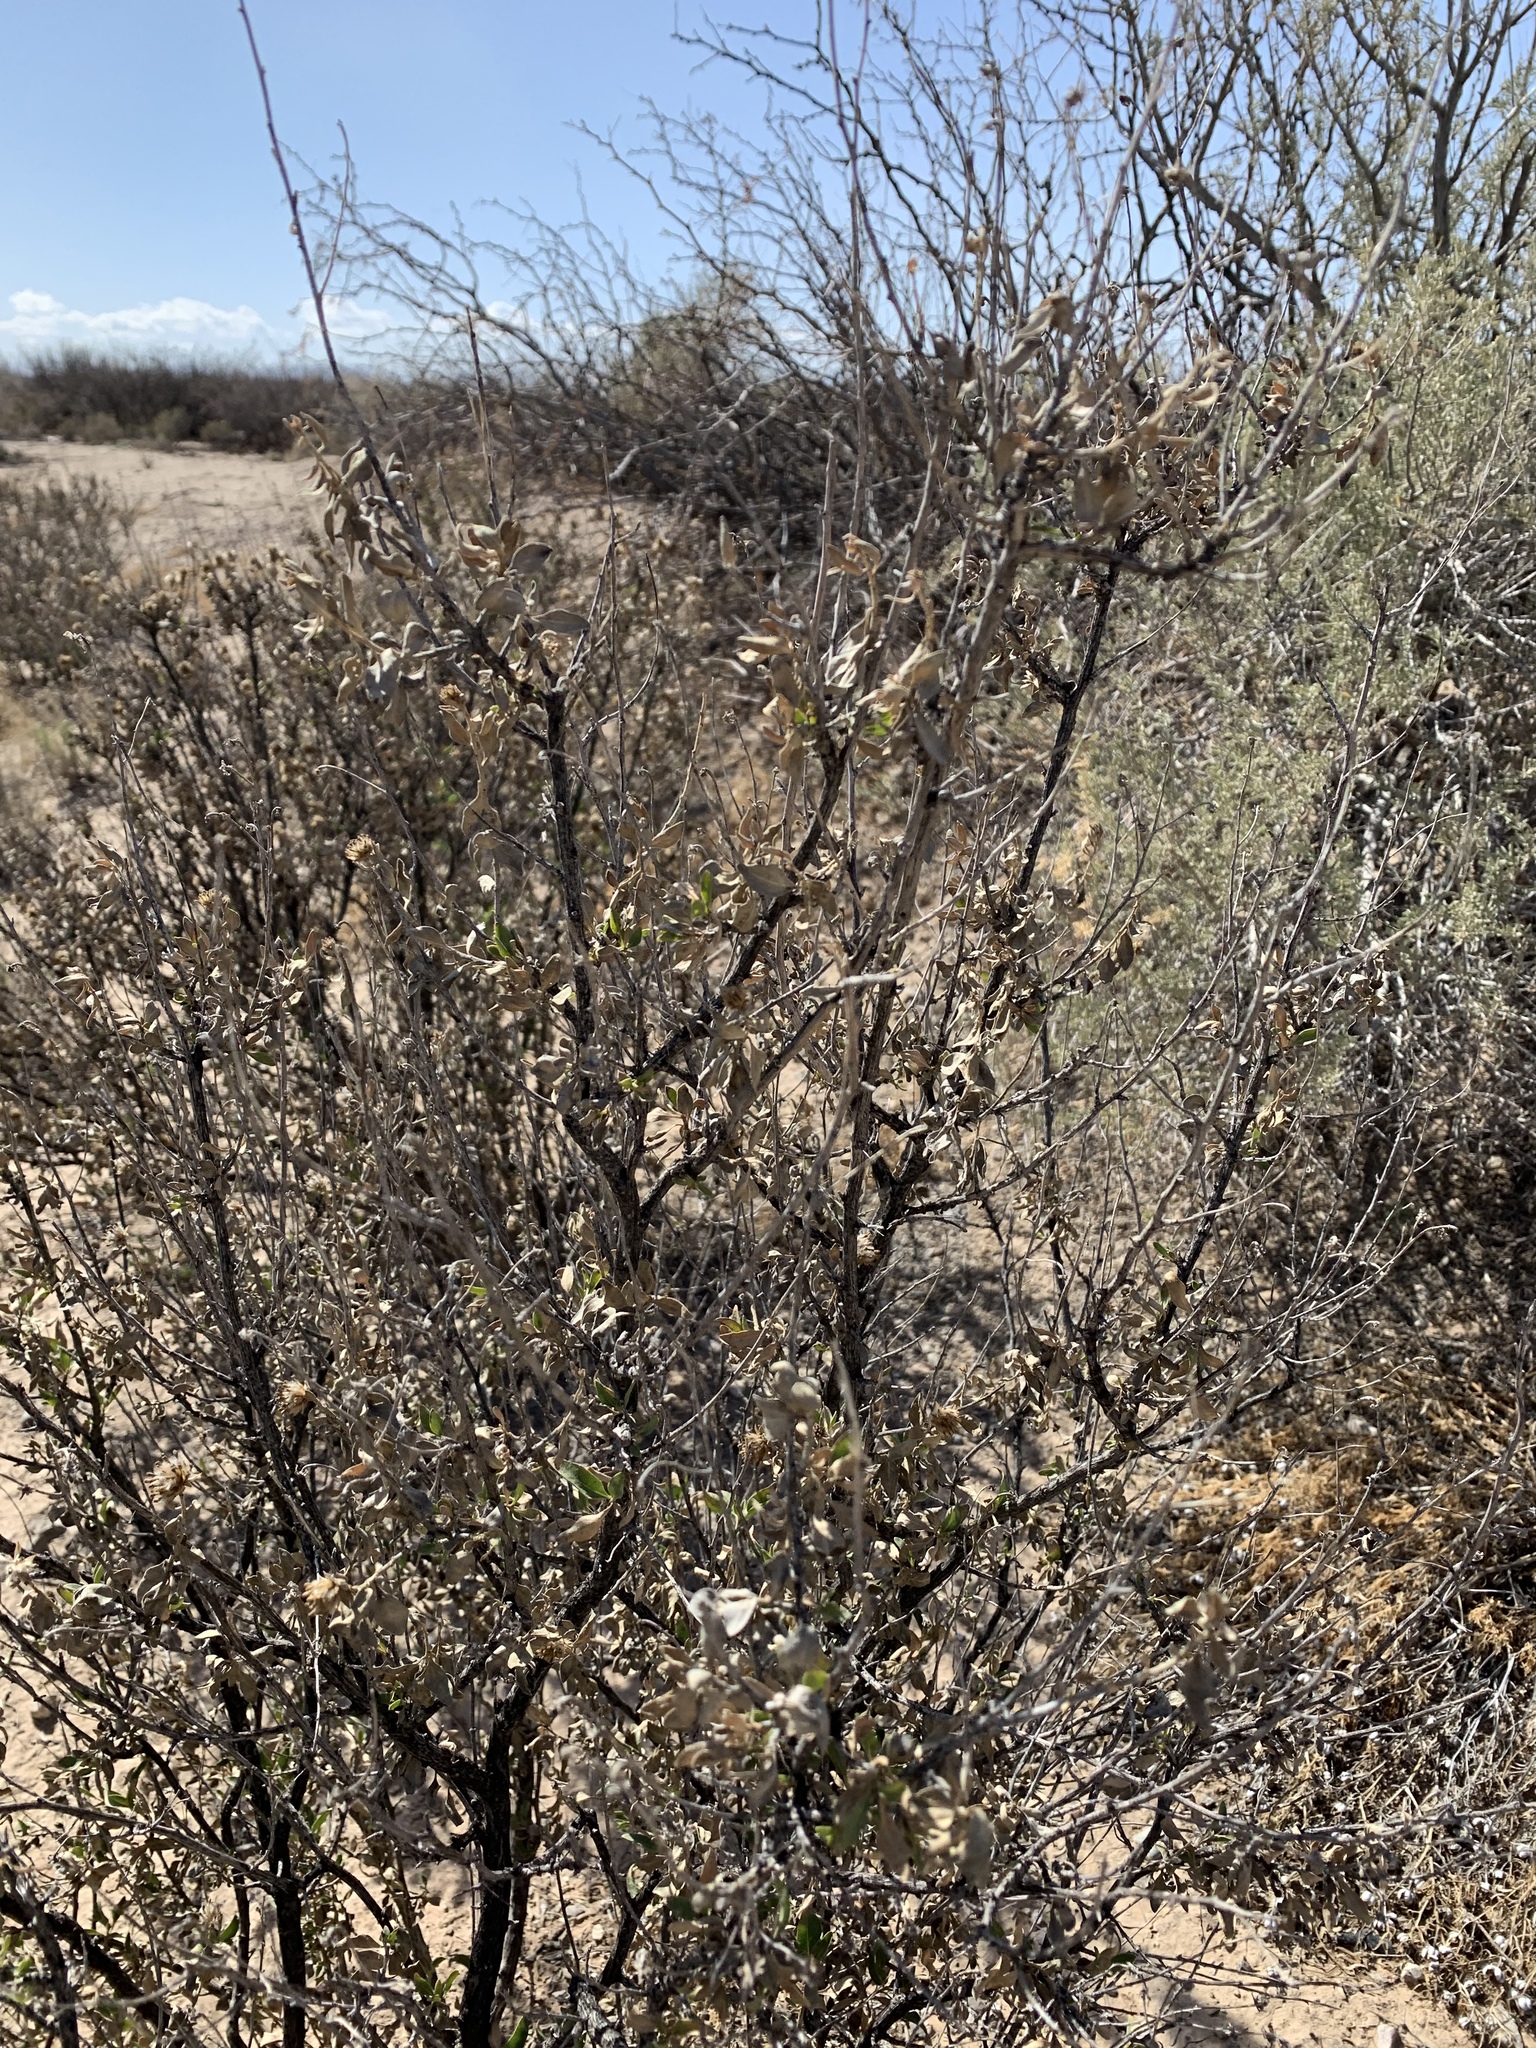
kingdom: Plantae
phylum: Tracheophyta
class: Magnoliopsida
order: Asterales
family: Asteraceae
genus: Flourensia
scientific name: Flourensia cernua
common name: Varnishbush
